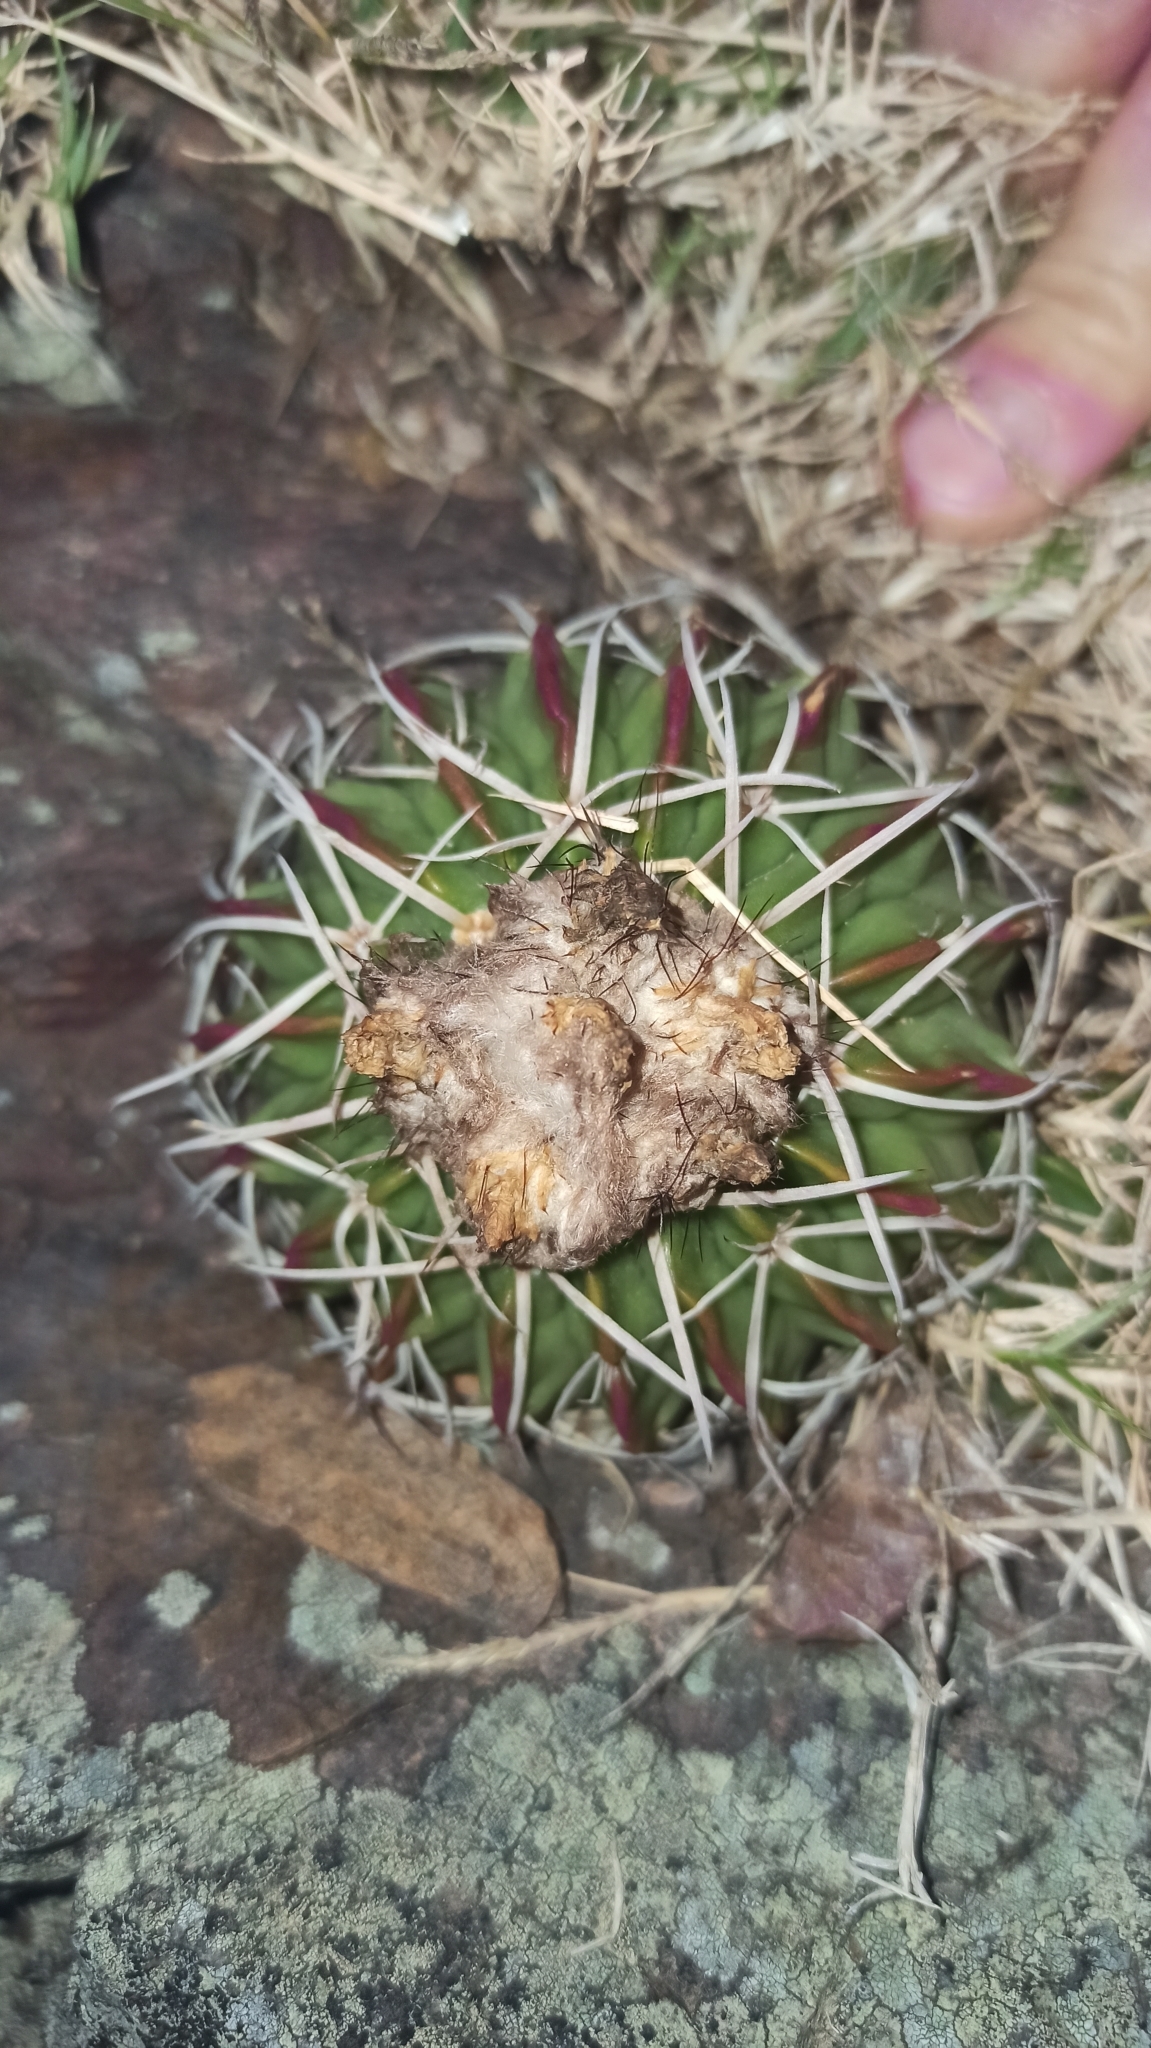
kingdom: Plantae
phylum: Tracheophyta
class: Magnoliopsida
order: Caryophyllales
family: Cactaceae
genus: Parodia
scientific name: Parodia erinacea
